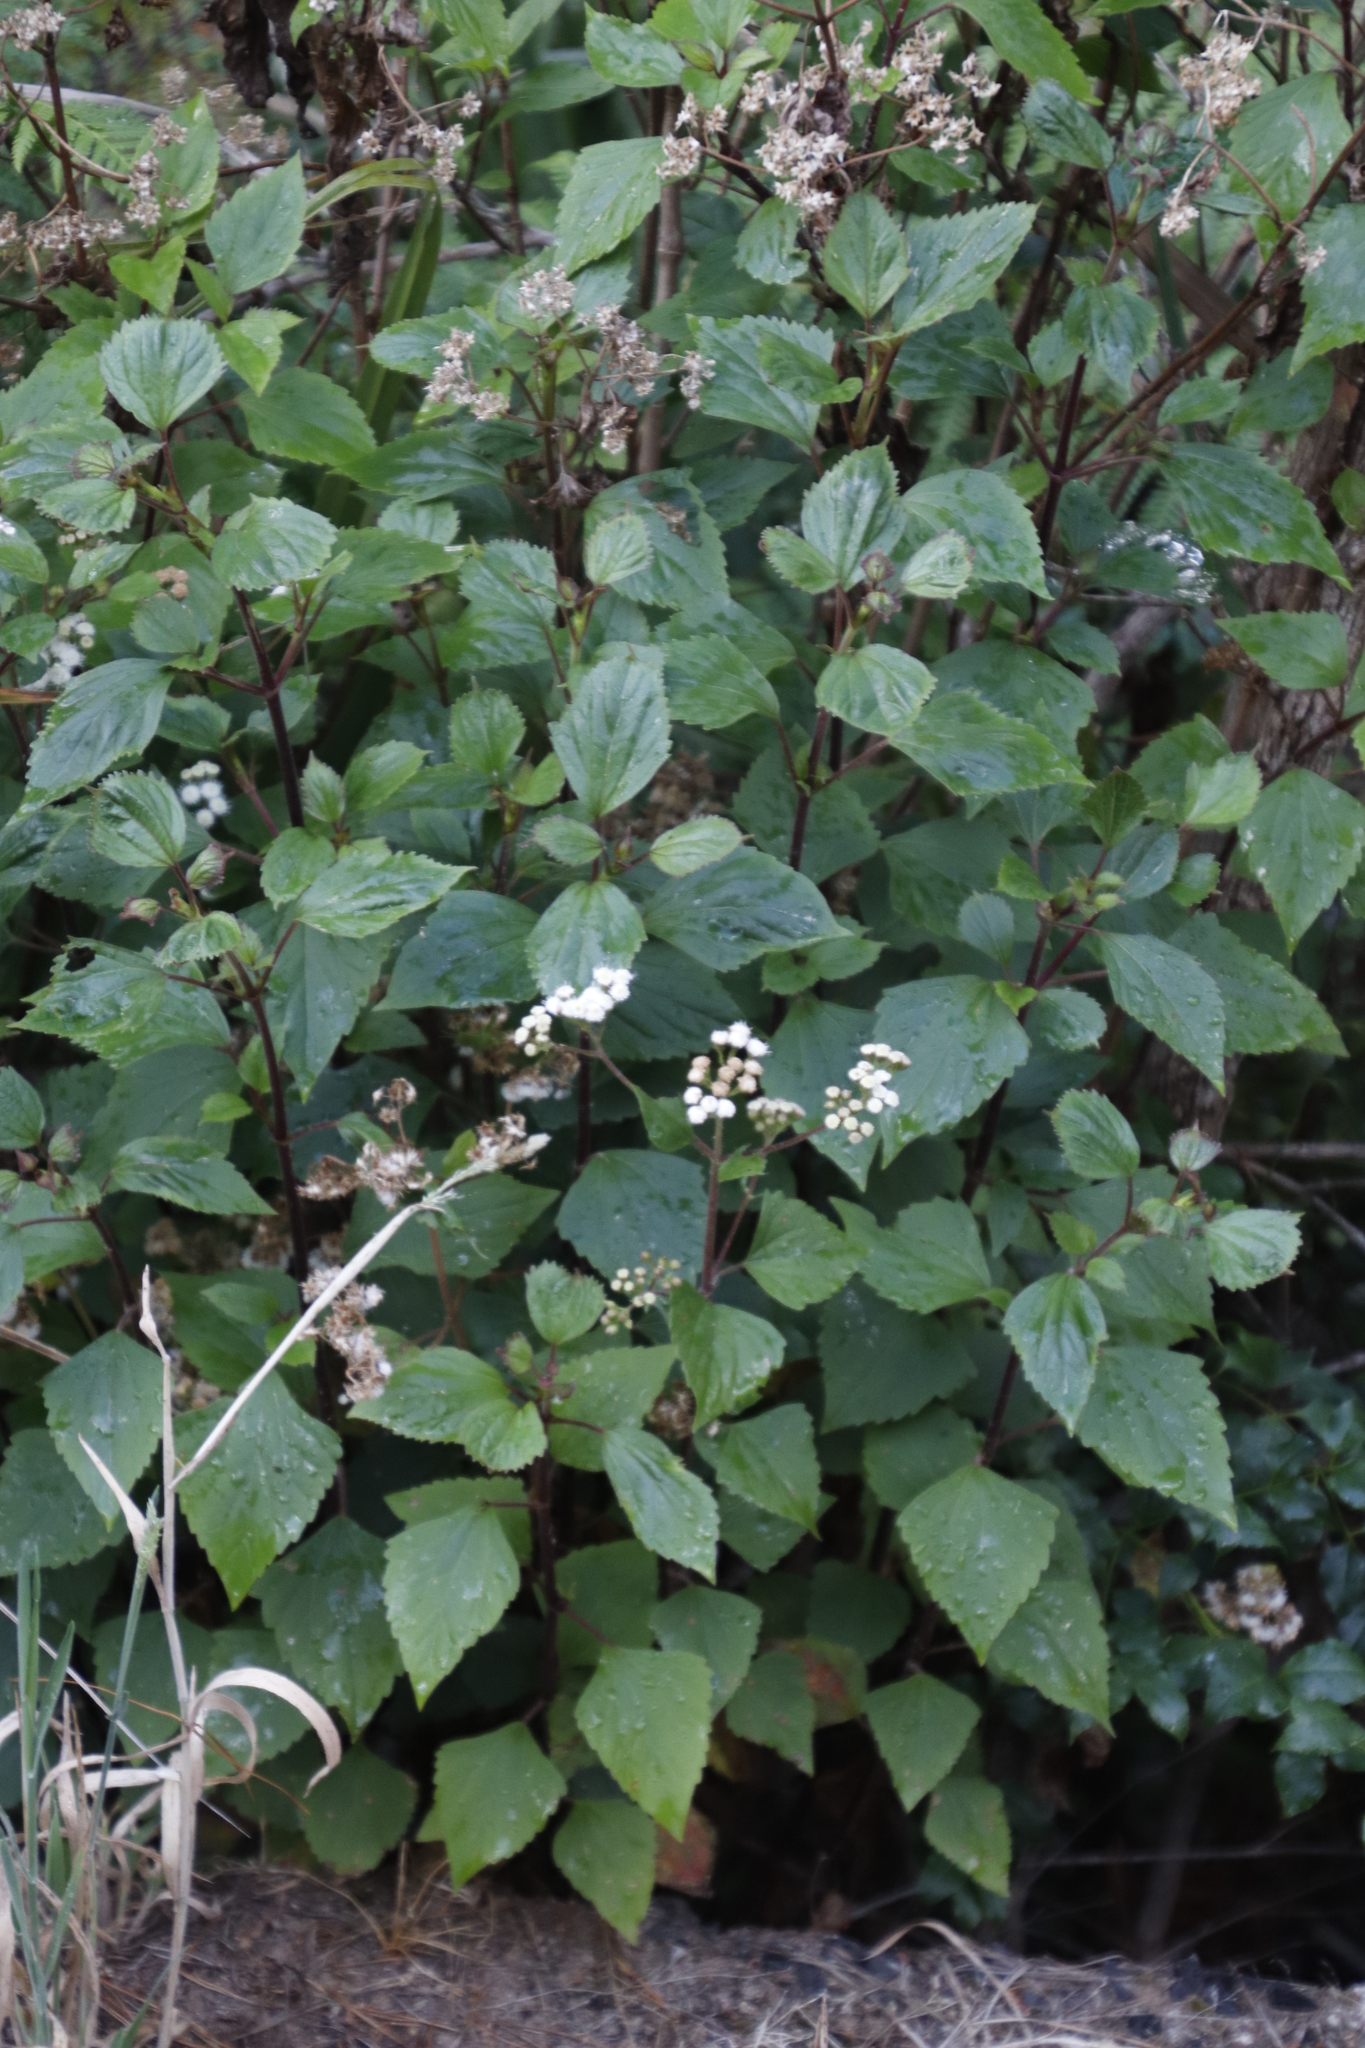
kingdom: Plantae
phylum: Tracheophyta
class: Magnoliopsida
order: Asterales
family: Asteraceae
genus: Ageratina
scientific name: Ageratina adenophora
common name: Sticky snakeroot
